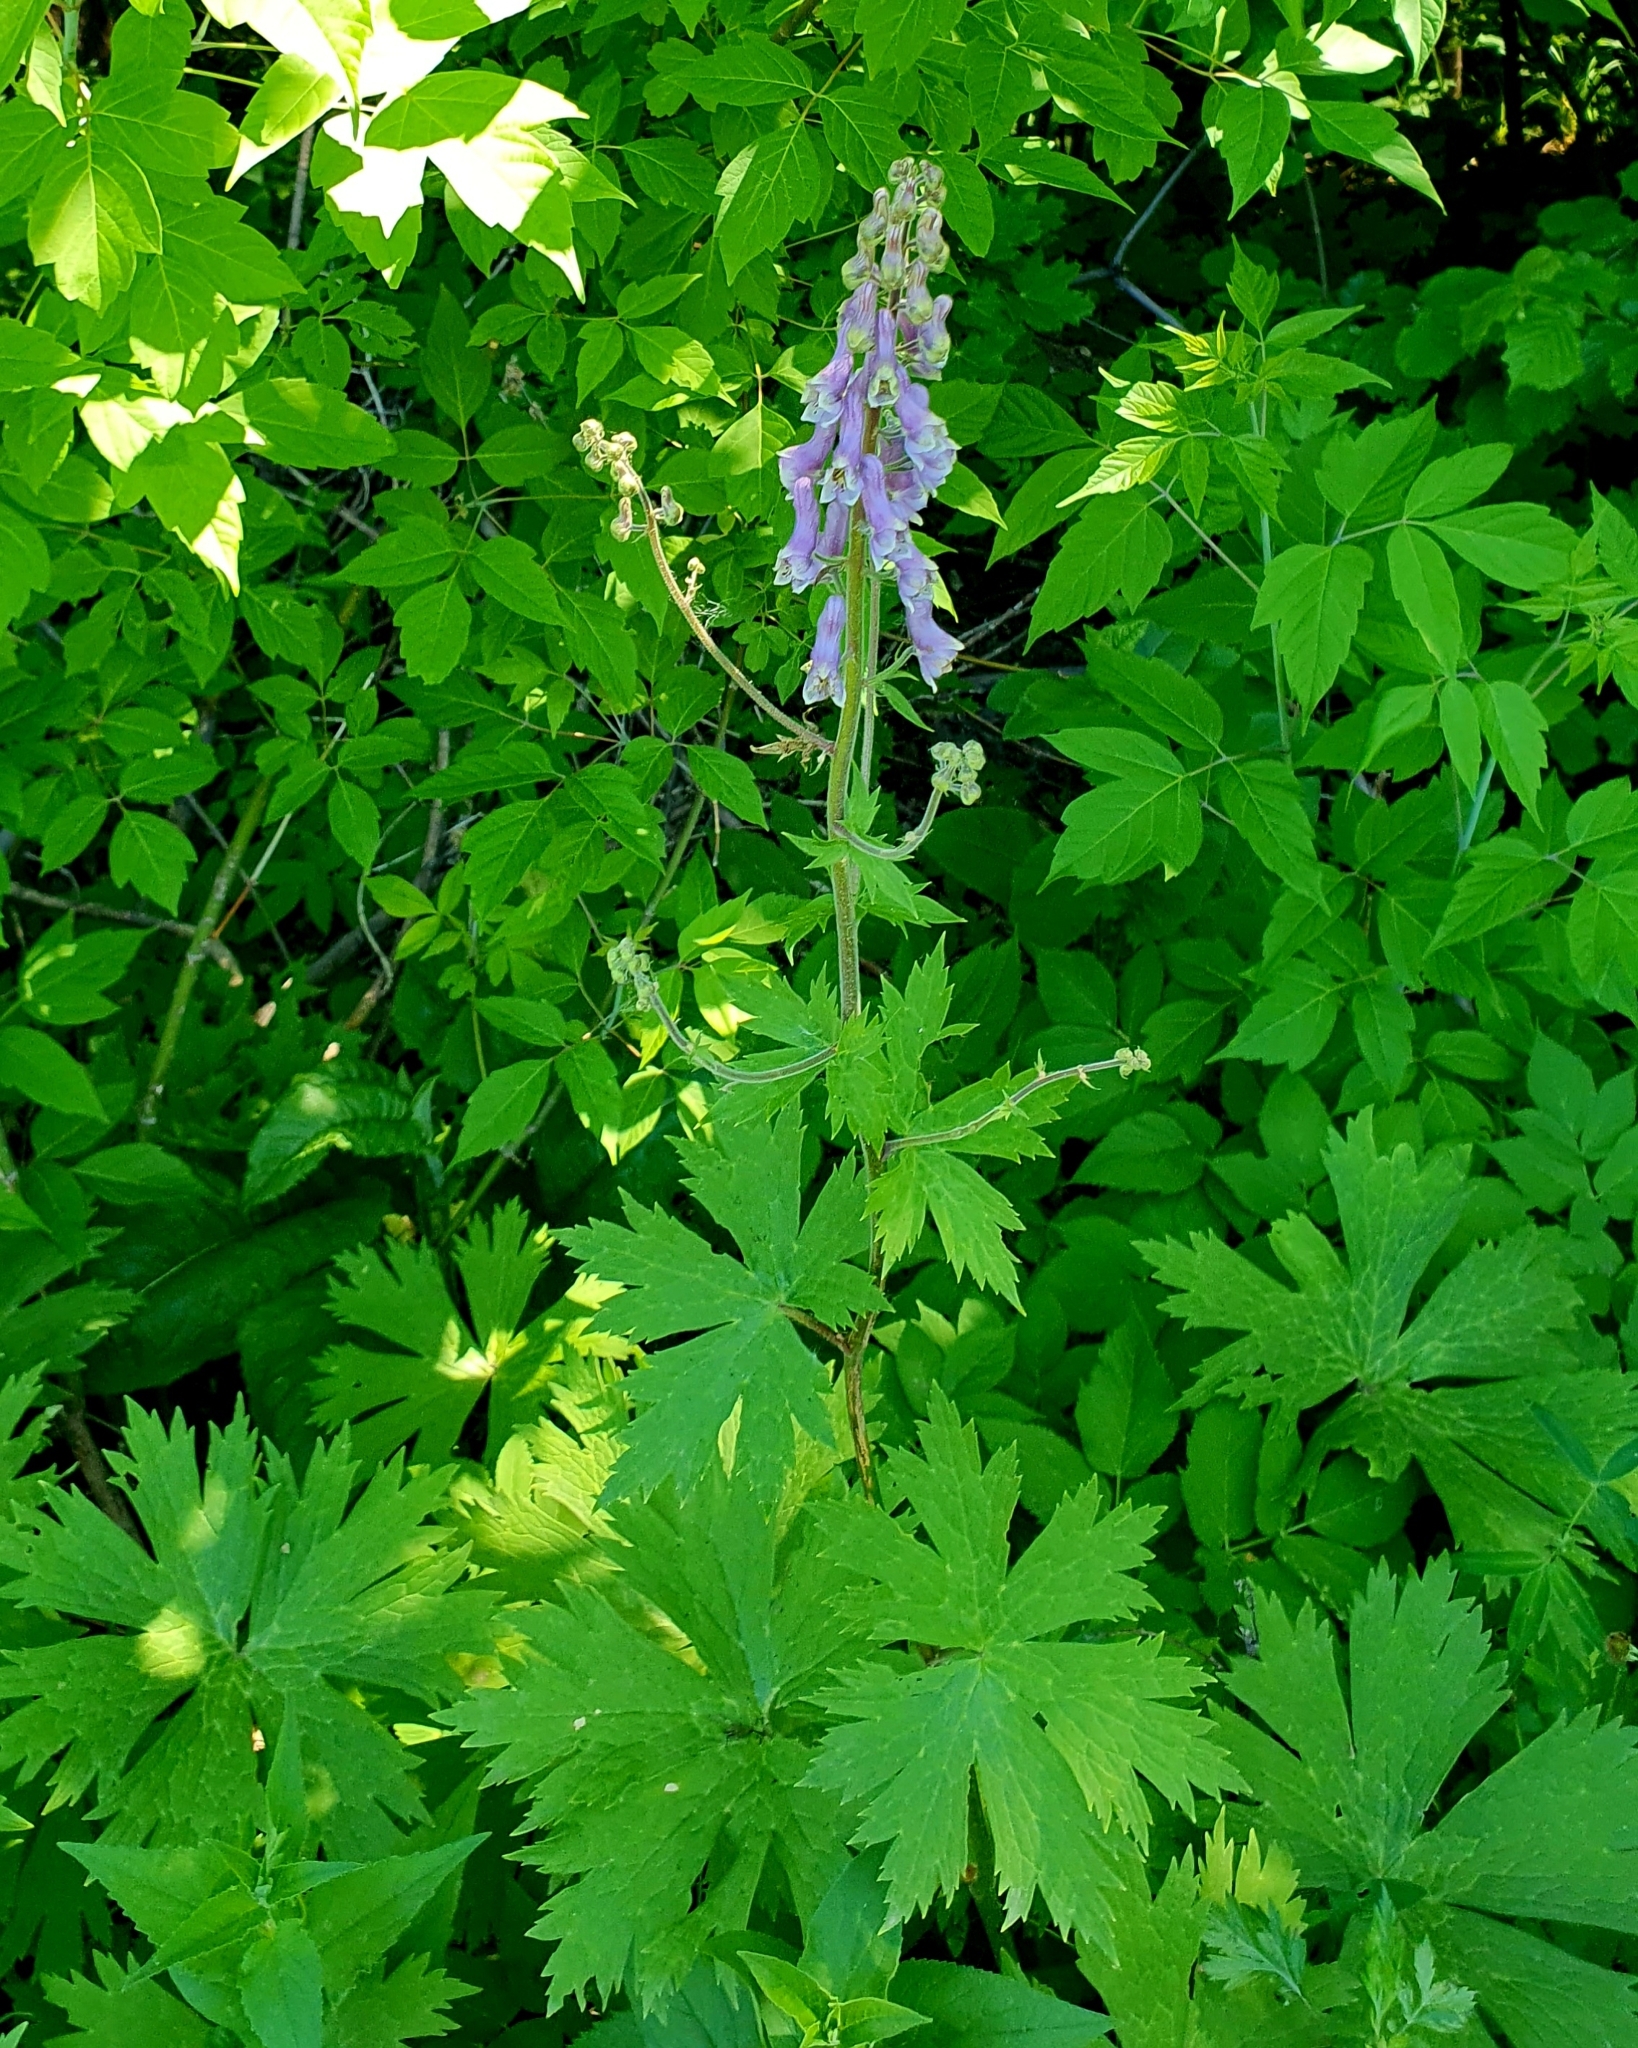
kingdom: Plantae
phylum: Tracheophyta
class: Magnoliopsida
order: Ranunculales
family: Ranunculaceae
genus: Aconitum
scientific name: Aconitum septentrionale
